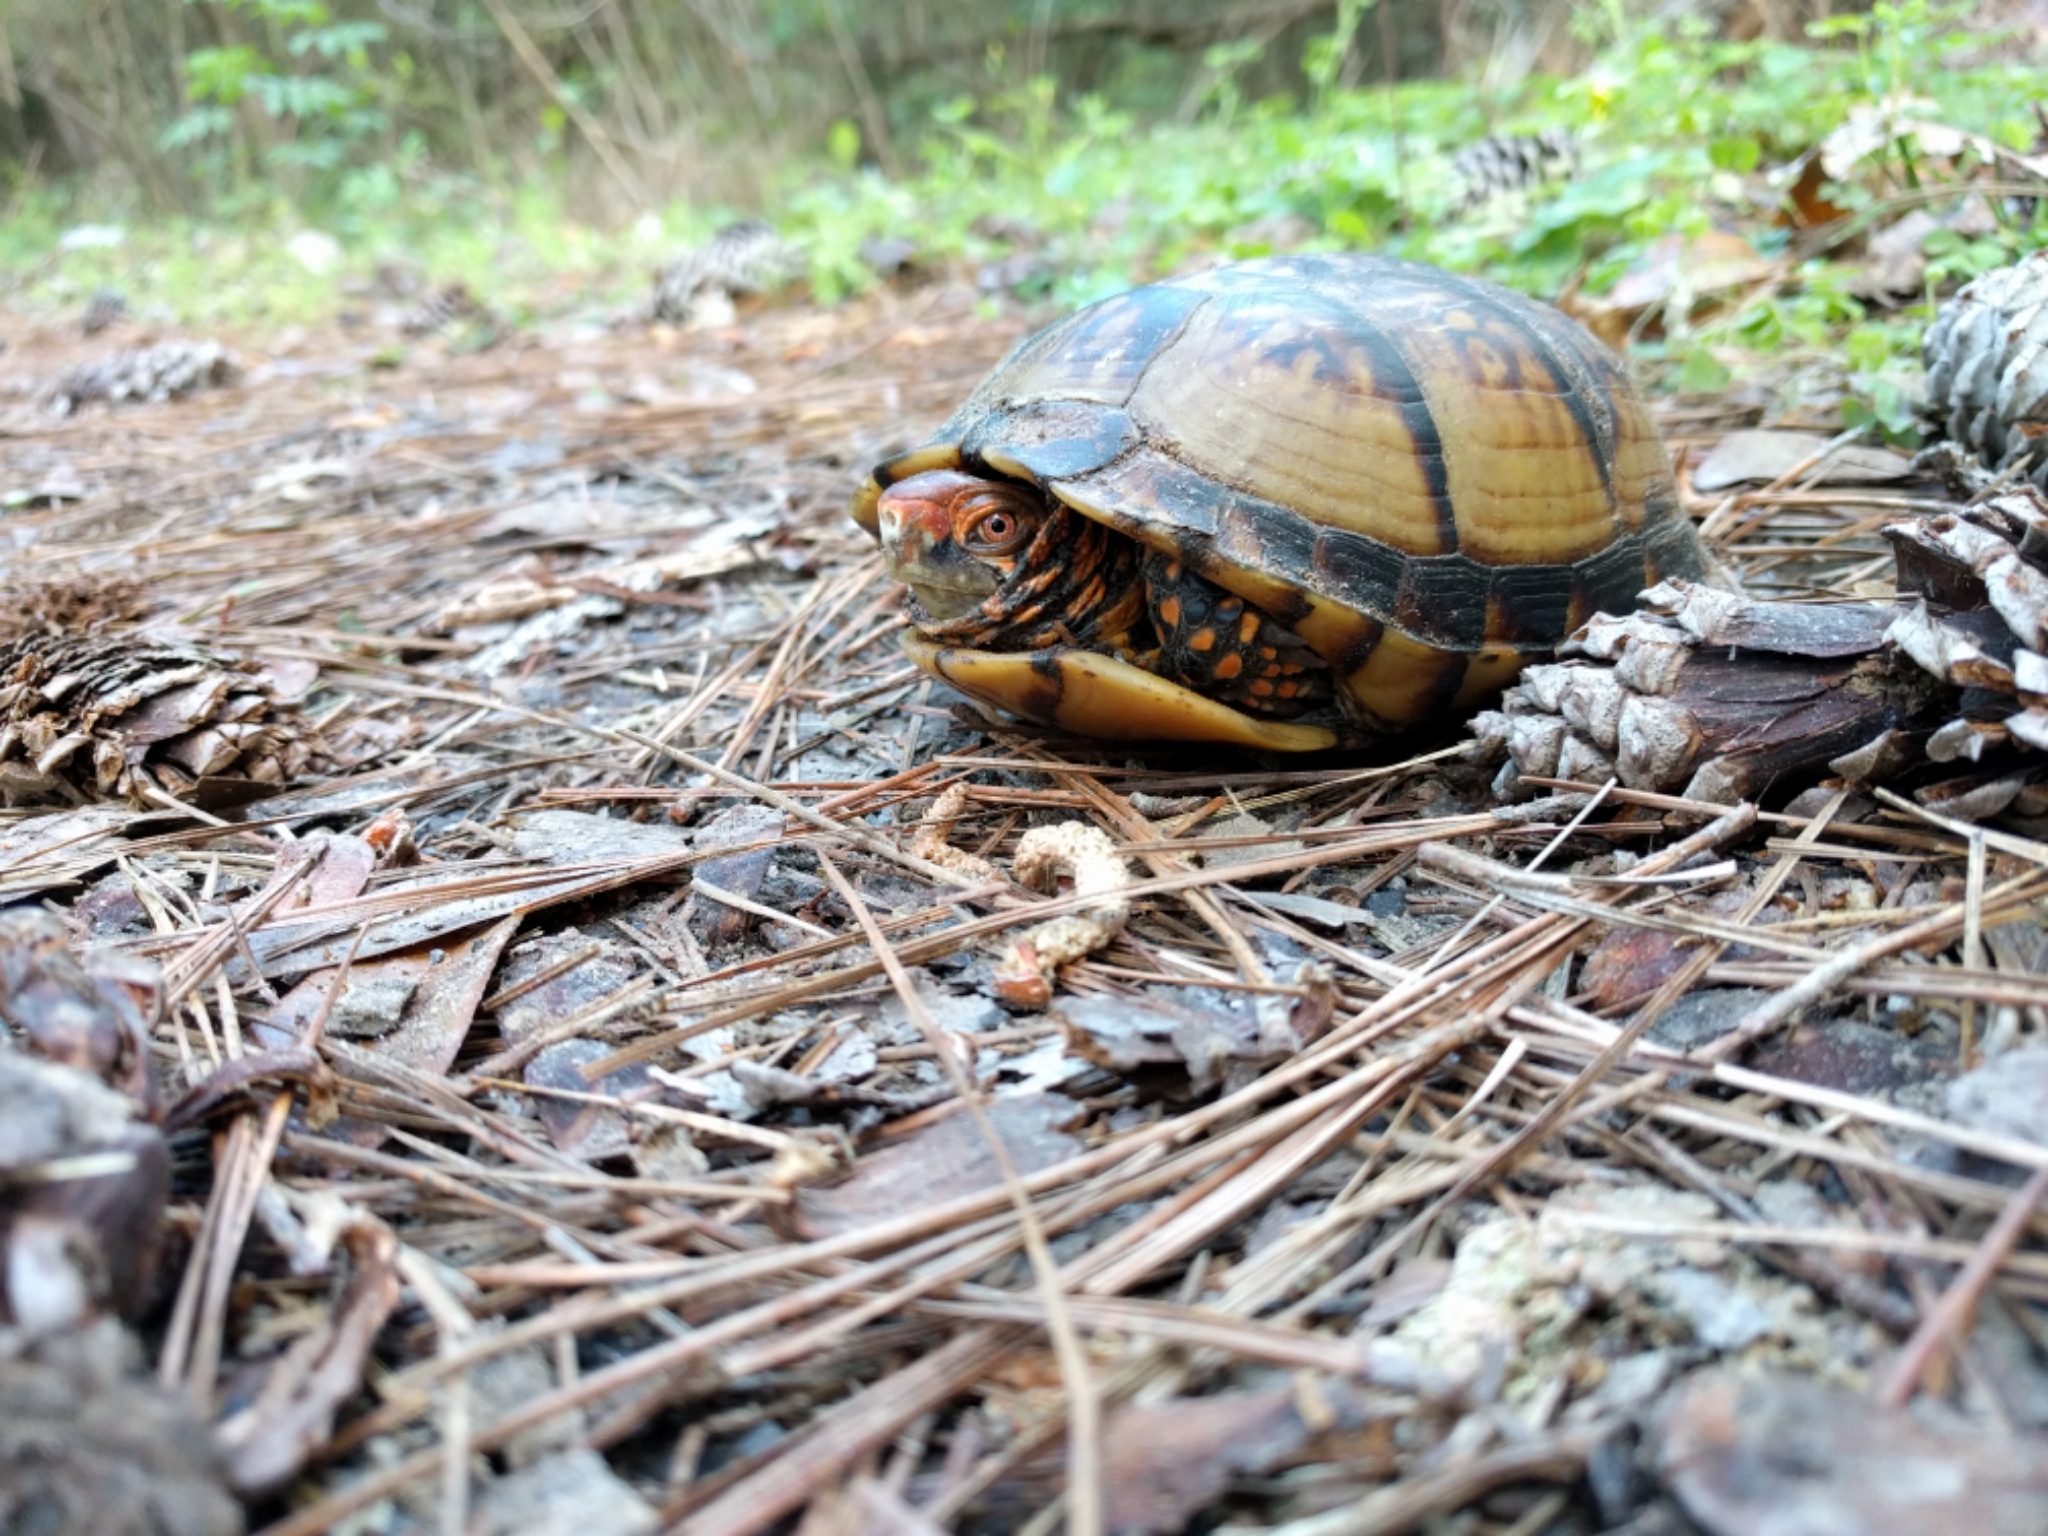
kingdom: Animalia
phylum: Chordata
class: Testudines
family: Emydidae
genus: Terrapene
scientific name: Terrapene carolina
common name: Common box turtle
